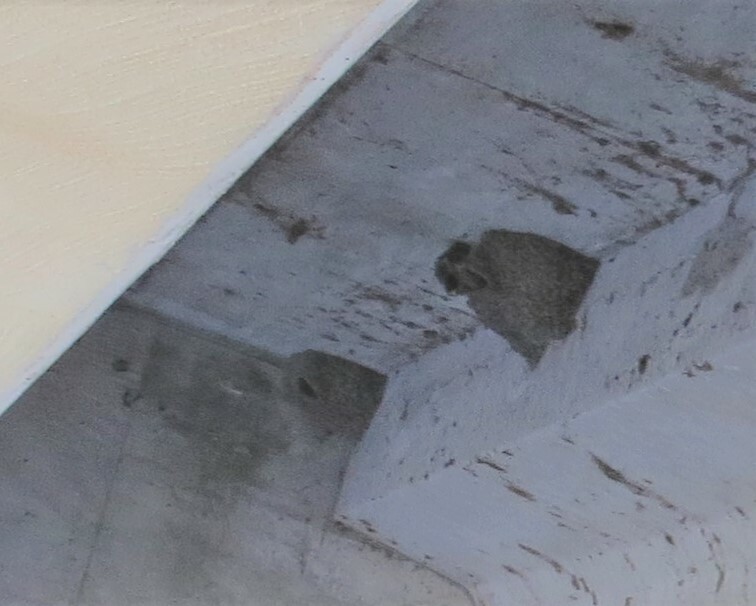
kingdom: Animalia
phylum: Chordata
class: Aves
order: Passeriformes
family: Hirundinidae
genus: Petrochelidon
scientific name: Petrochelidon pyrrhonota
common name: American cliff swallow
